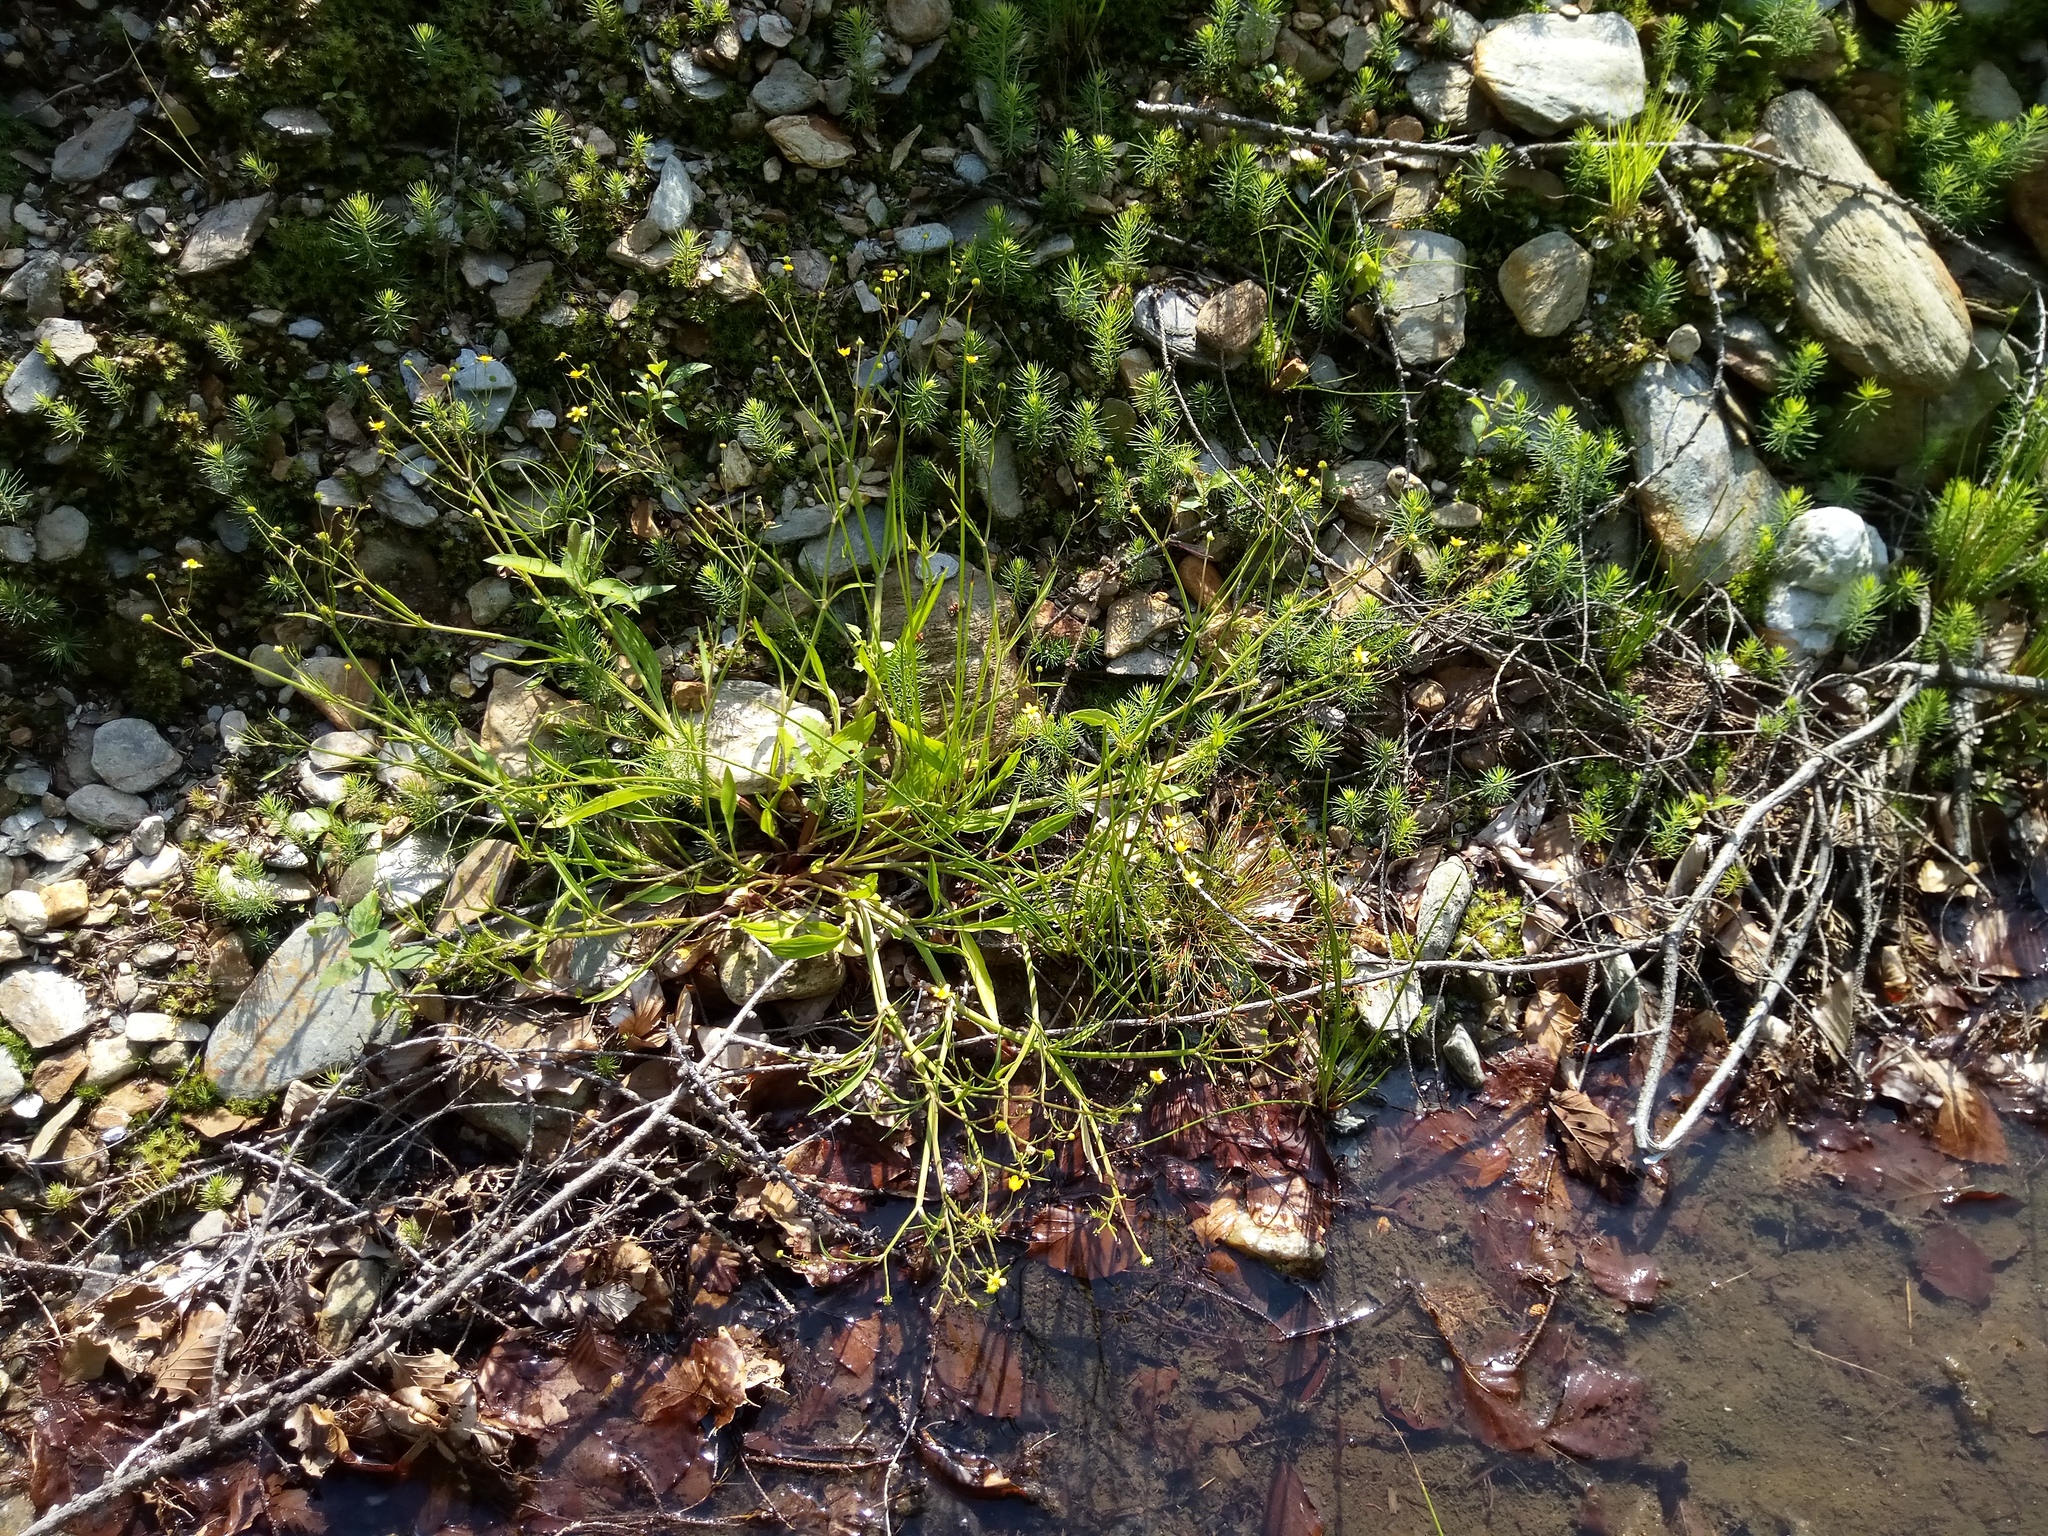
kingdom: Plantae
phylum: Tracheophyta
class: Magnoliopsida
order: Ranunculales
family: Ranunculaceae
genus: Ranunculus
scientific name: Ranunculus flammula
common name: Lesser spearwort
